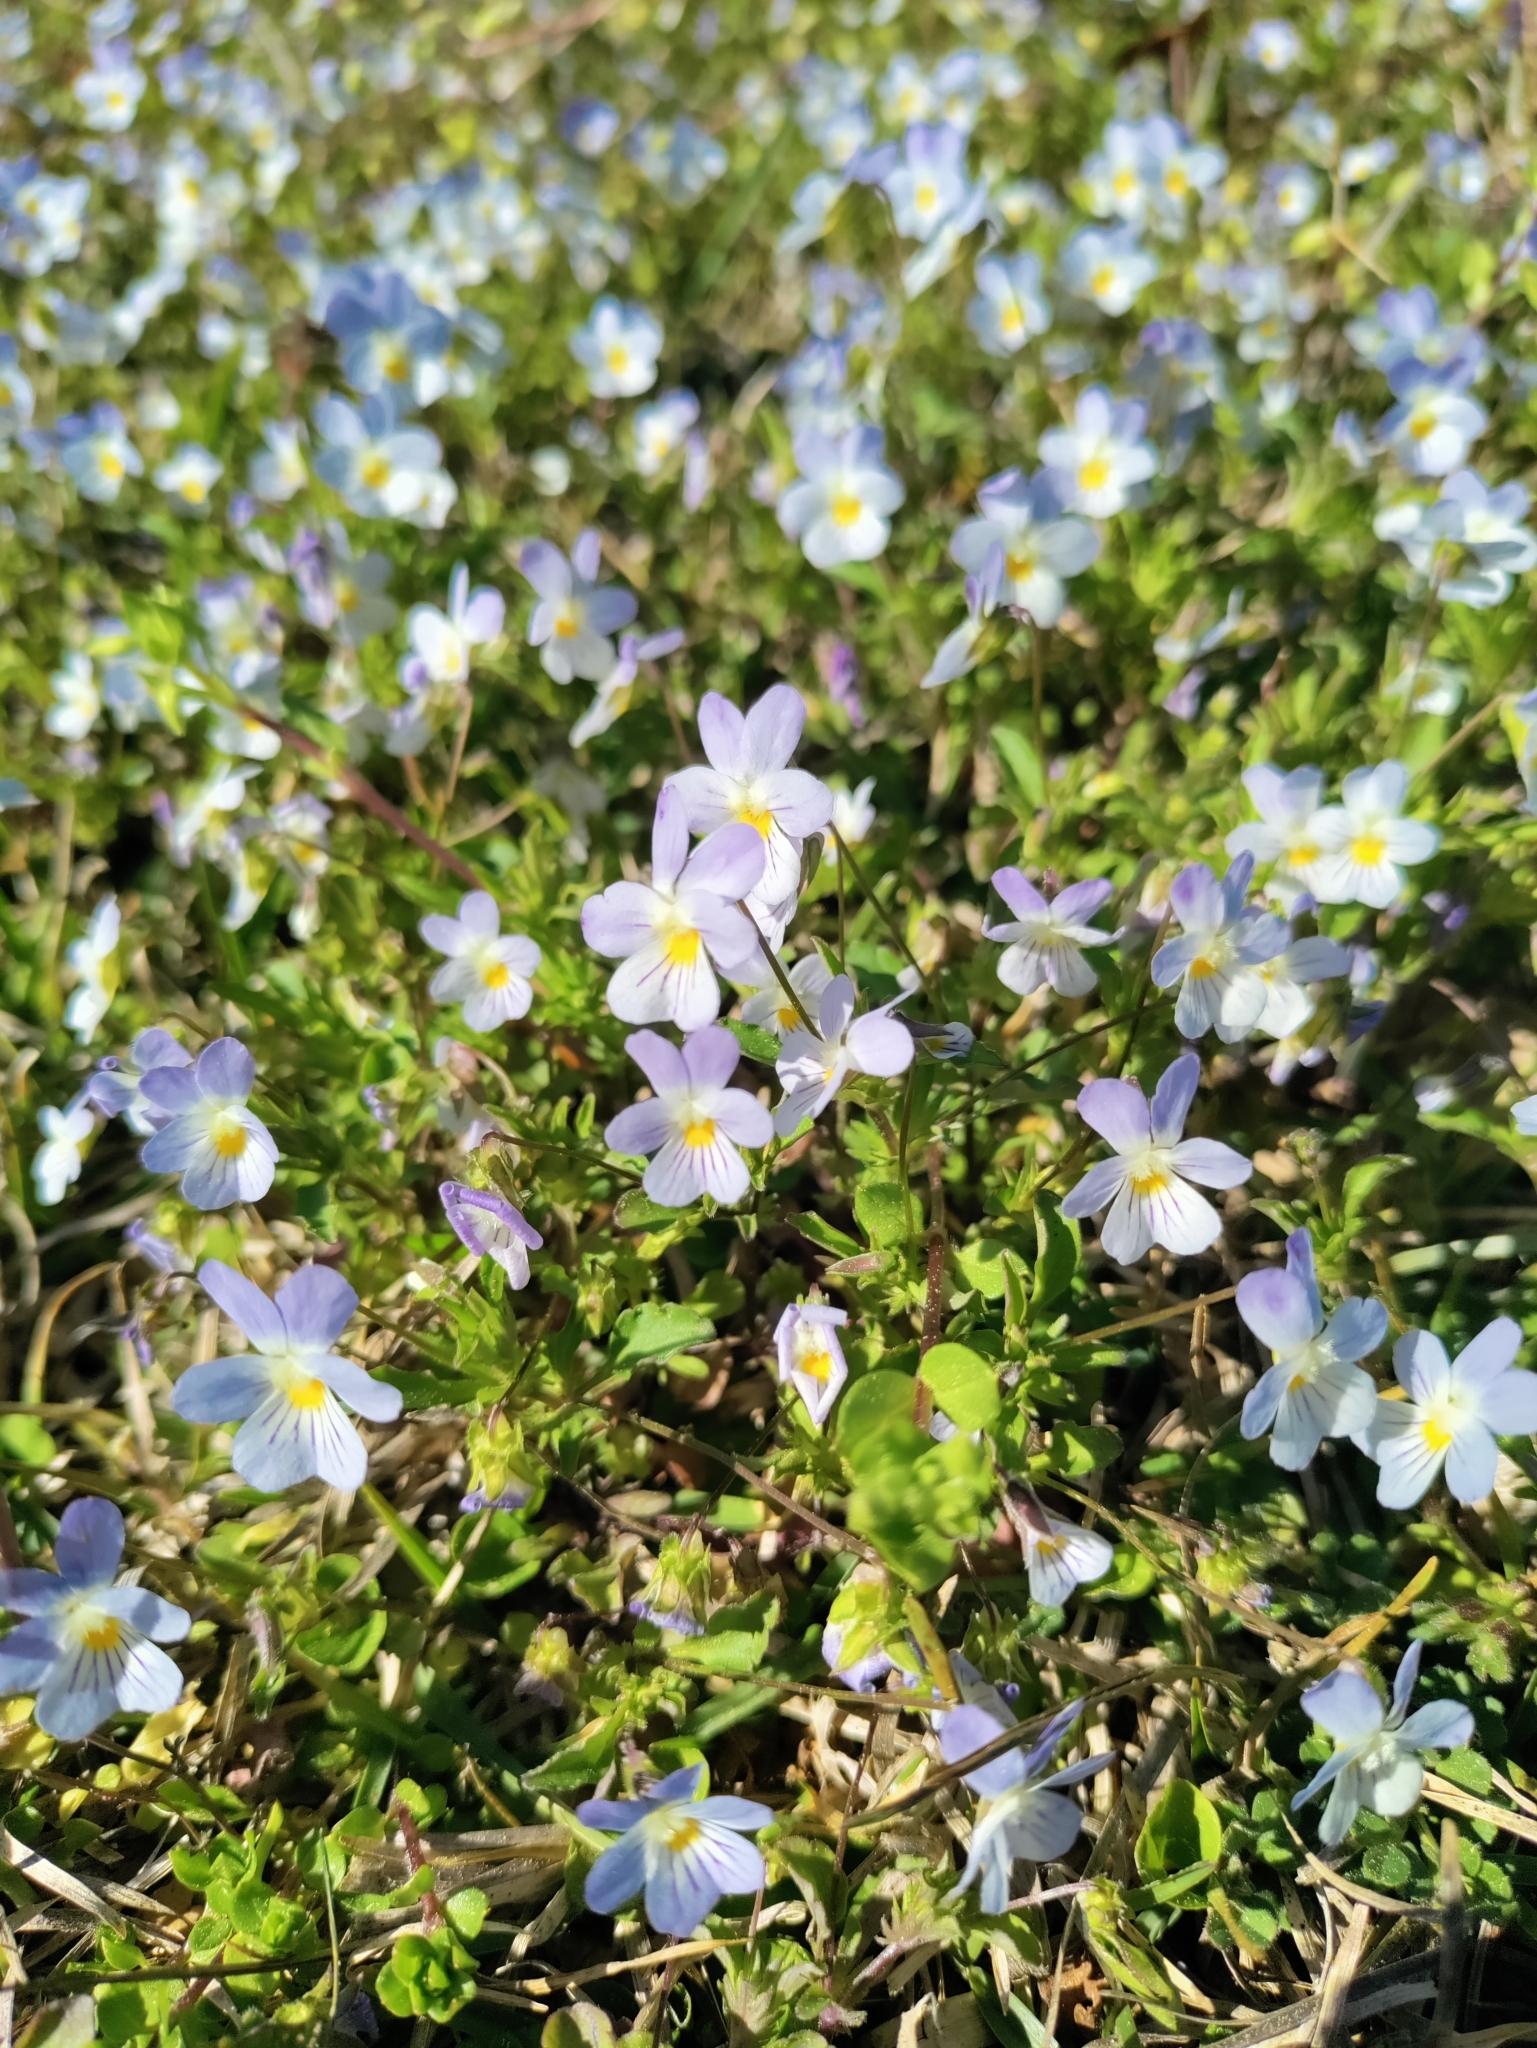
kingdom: Plantae
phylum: Tracheophyta
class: Magnoliopsida
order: Malpighiales
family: Violaceae
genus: Viola
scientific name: Viola rafinesquei
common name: American field pansy
